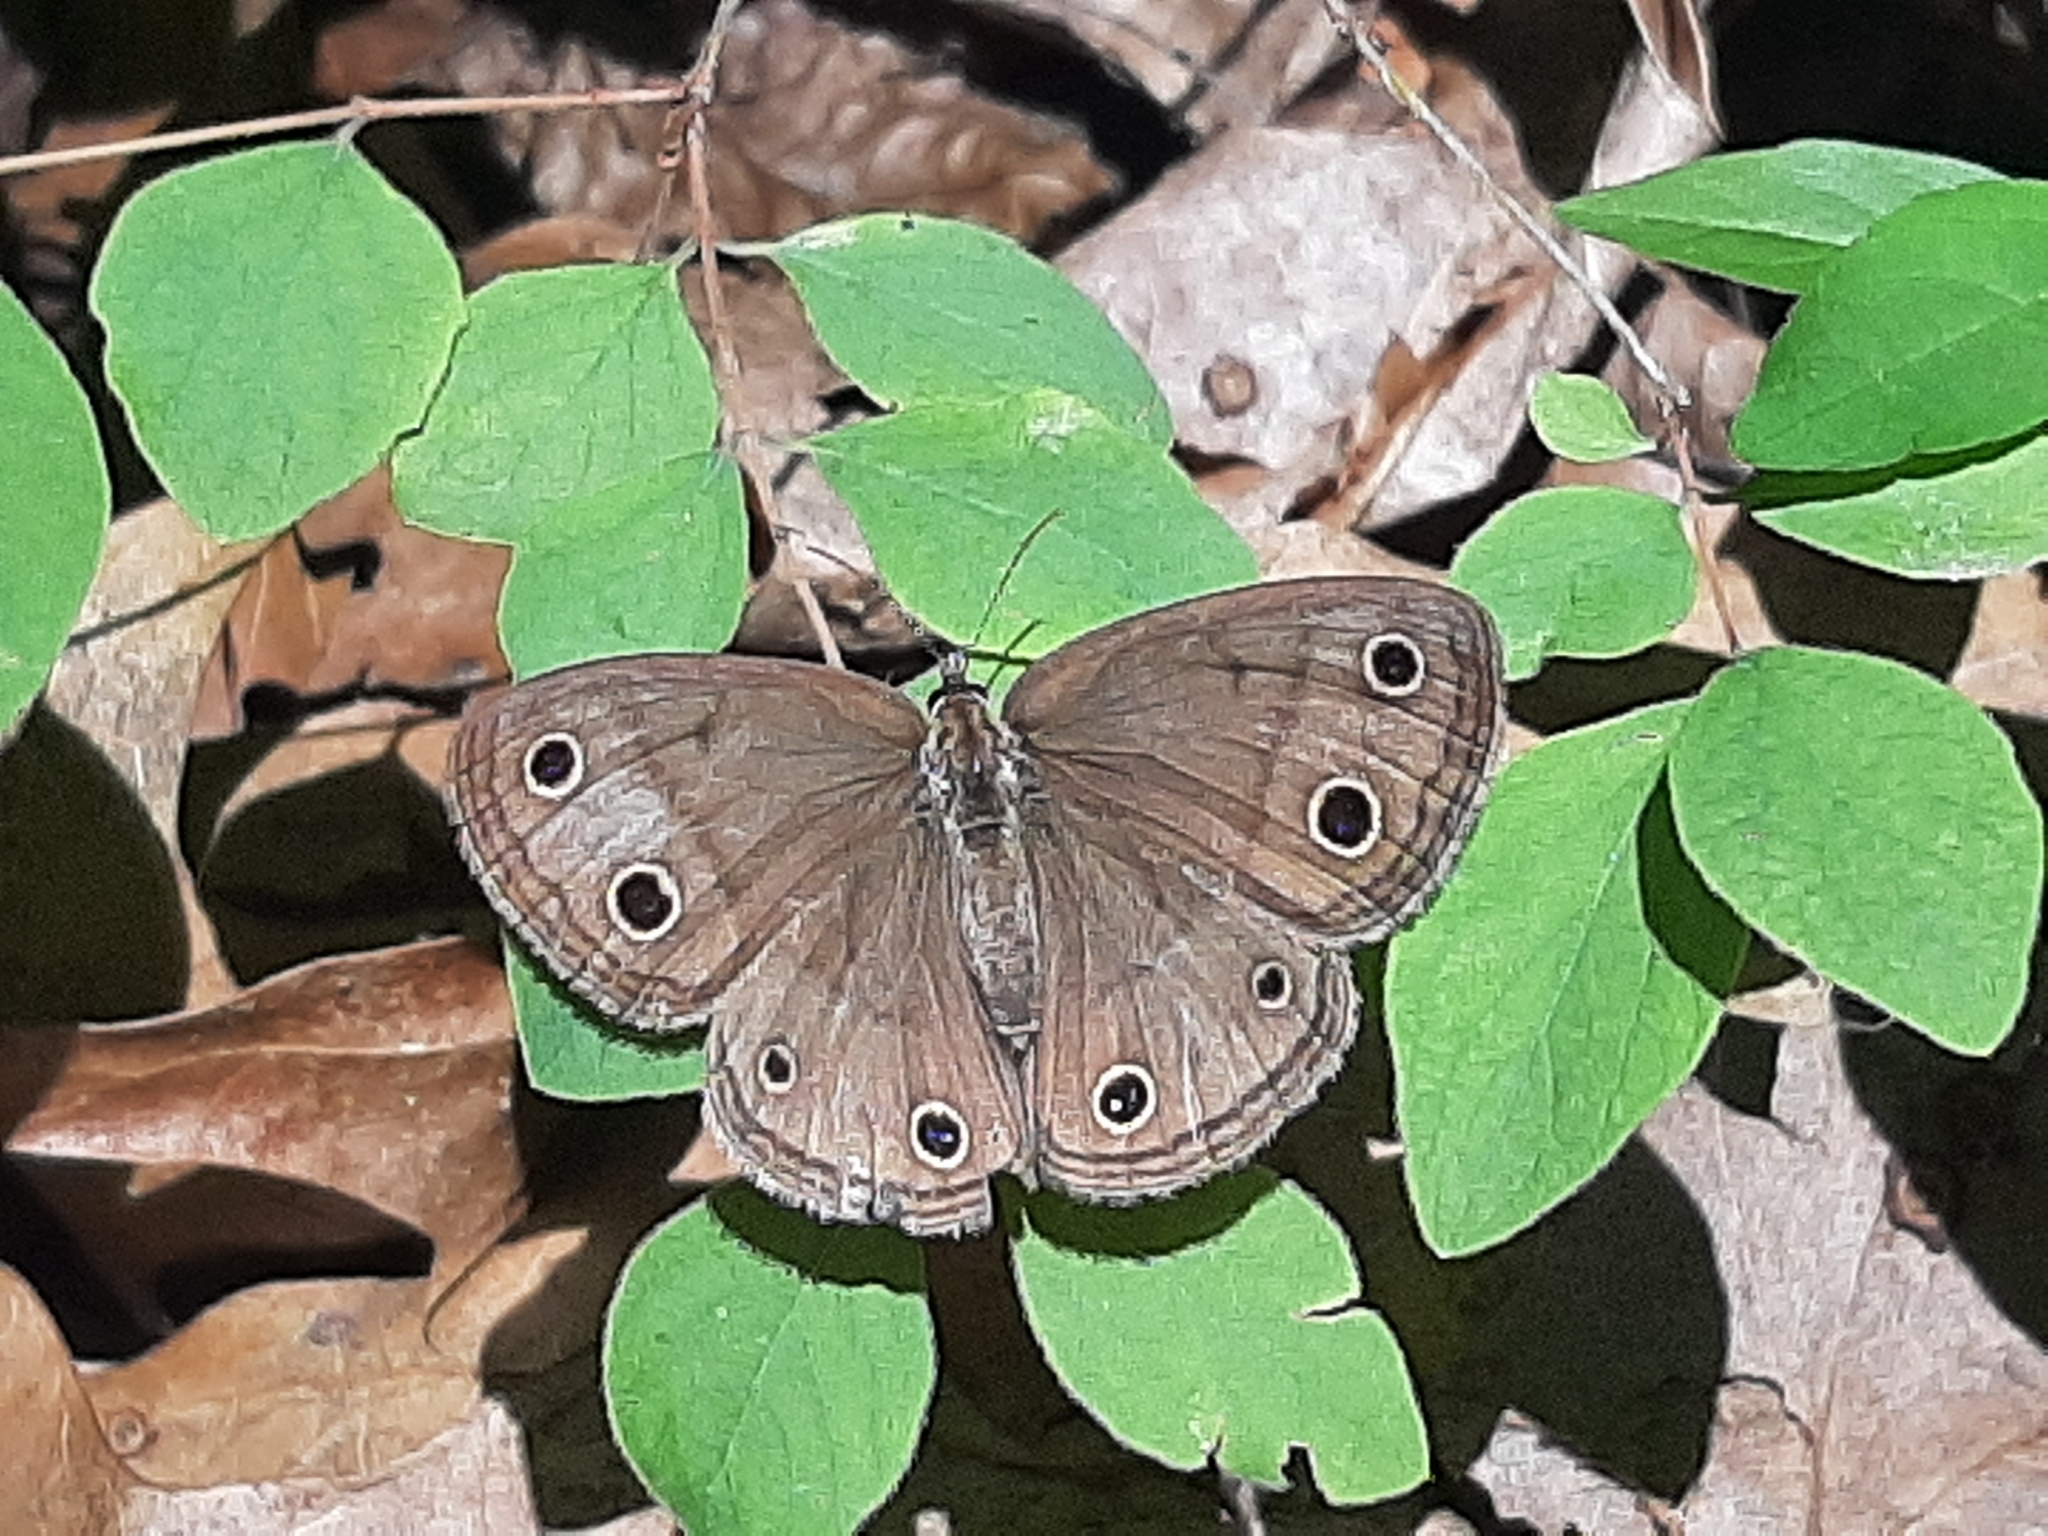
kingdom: Animalia
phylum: Arthropoda
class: Insecta
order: Lepidoptera
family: Nymphalidae
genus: Euptychia
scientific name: Euptychia cymela
